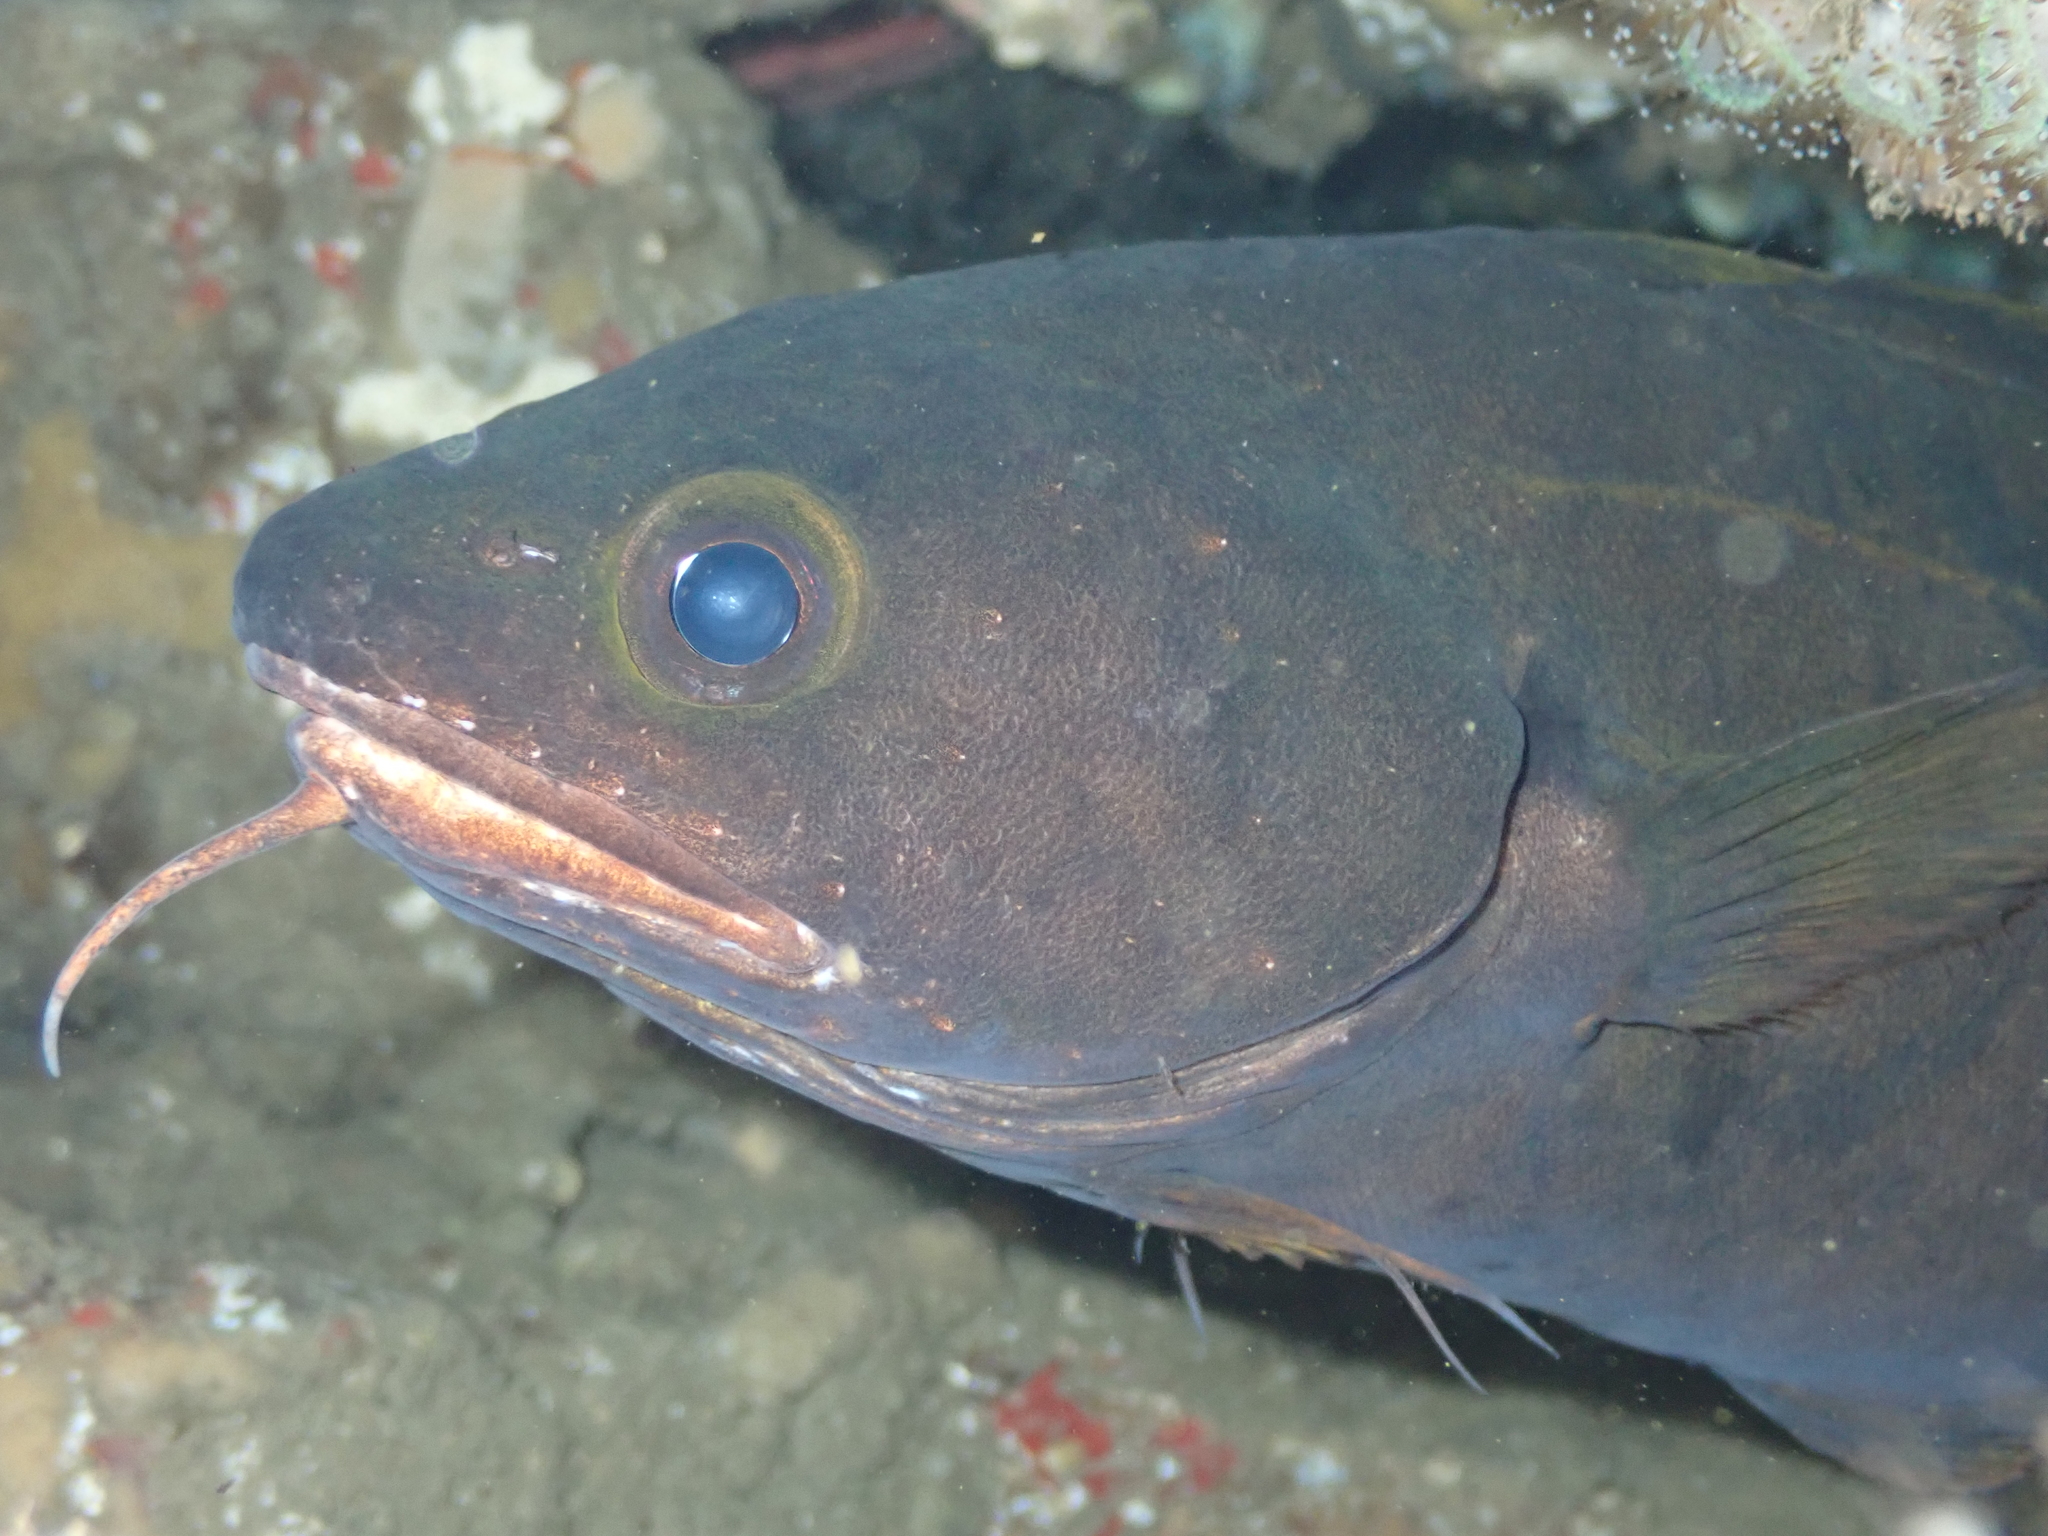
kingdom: Animalia
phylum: Chordata
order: Gadiformes
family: Moridae
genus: Lotella
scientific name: Lotella rhacina
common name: Rock cod
